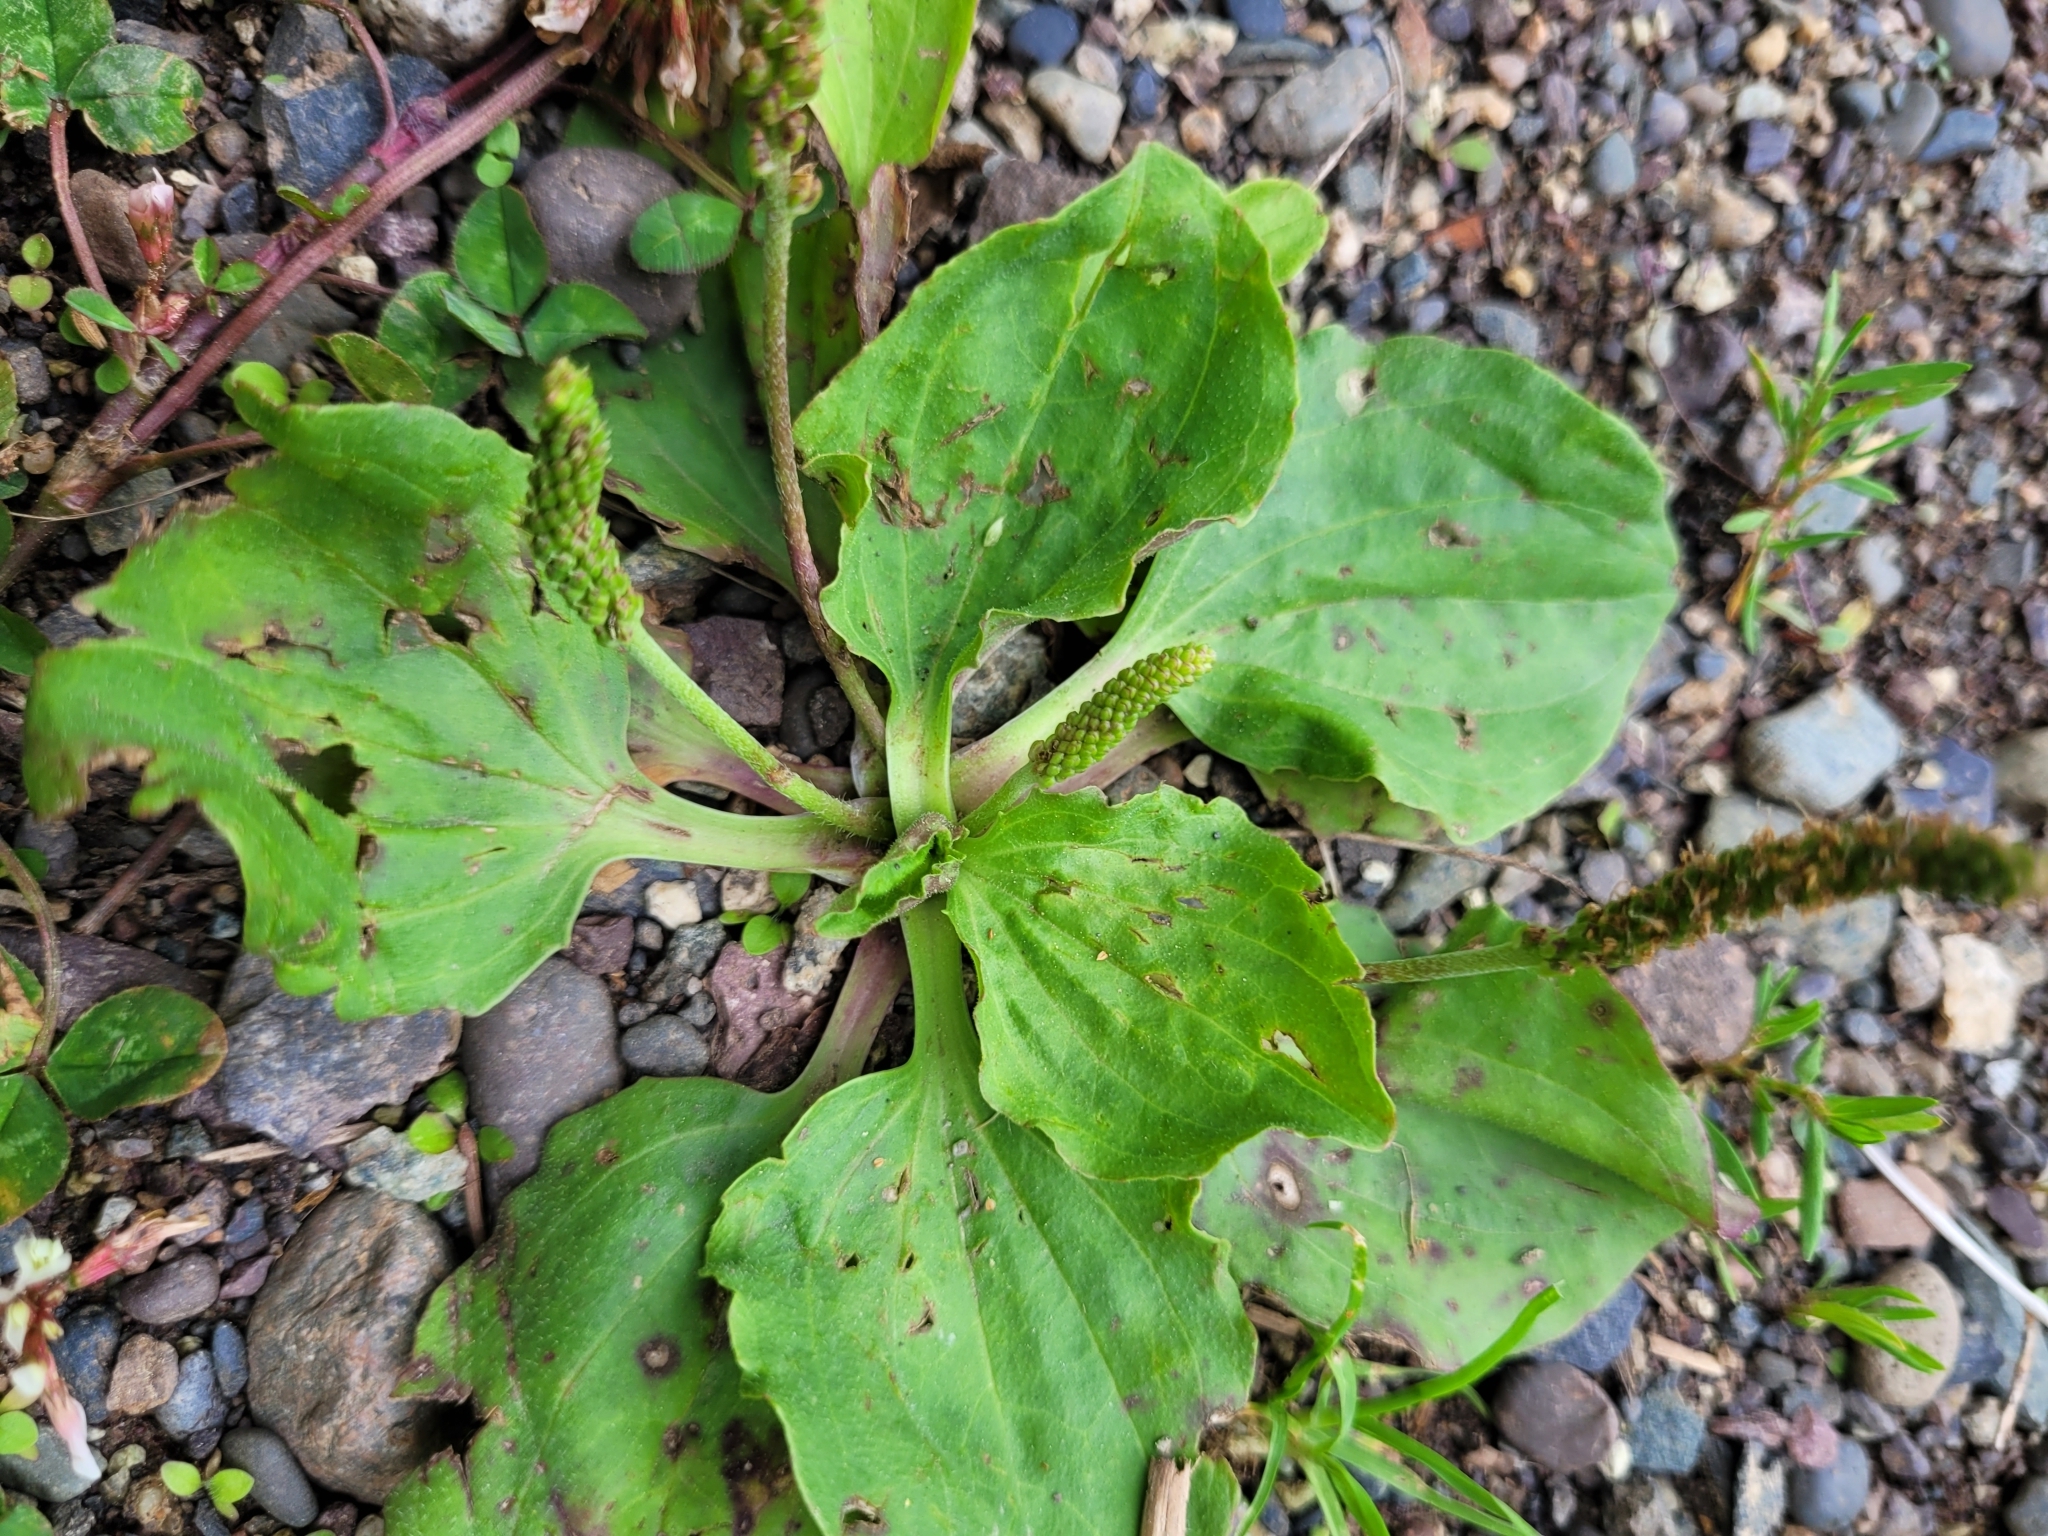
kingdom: Plantae
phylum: Tracheophyta
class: Magnoliopsida
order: Lamiales
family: Plantaginaceae
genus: Plantago
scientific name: Plantago major
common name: Common plantain
